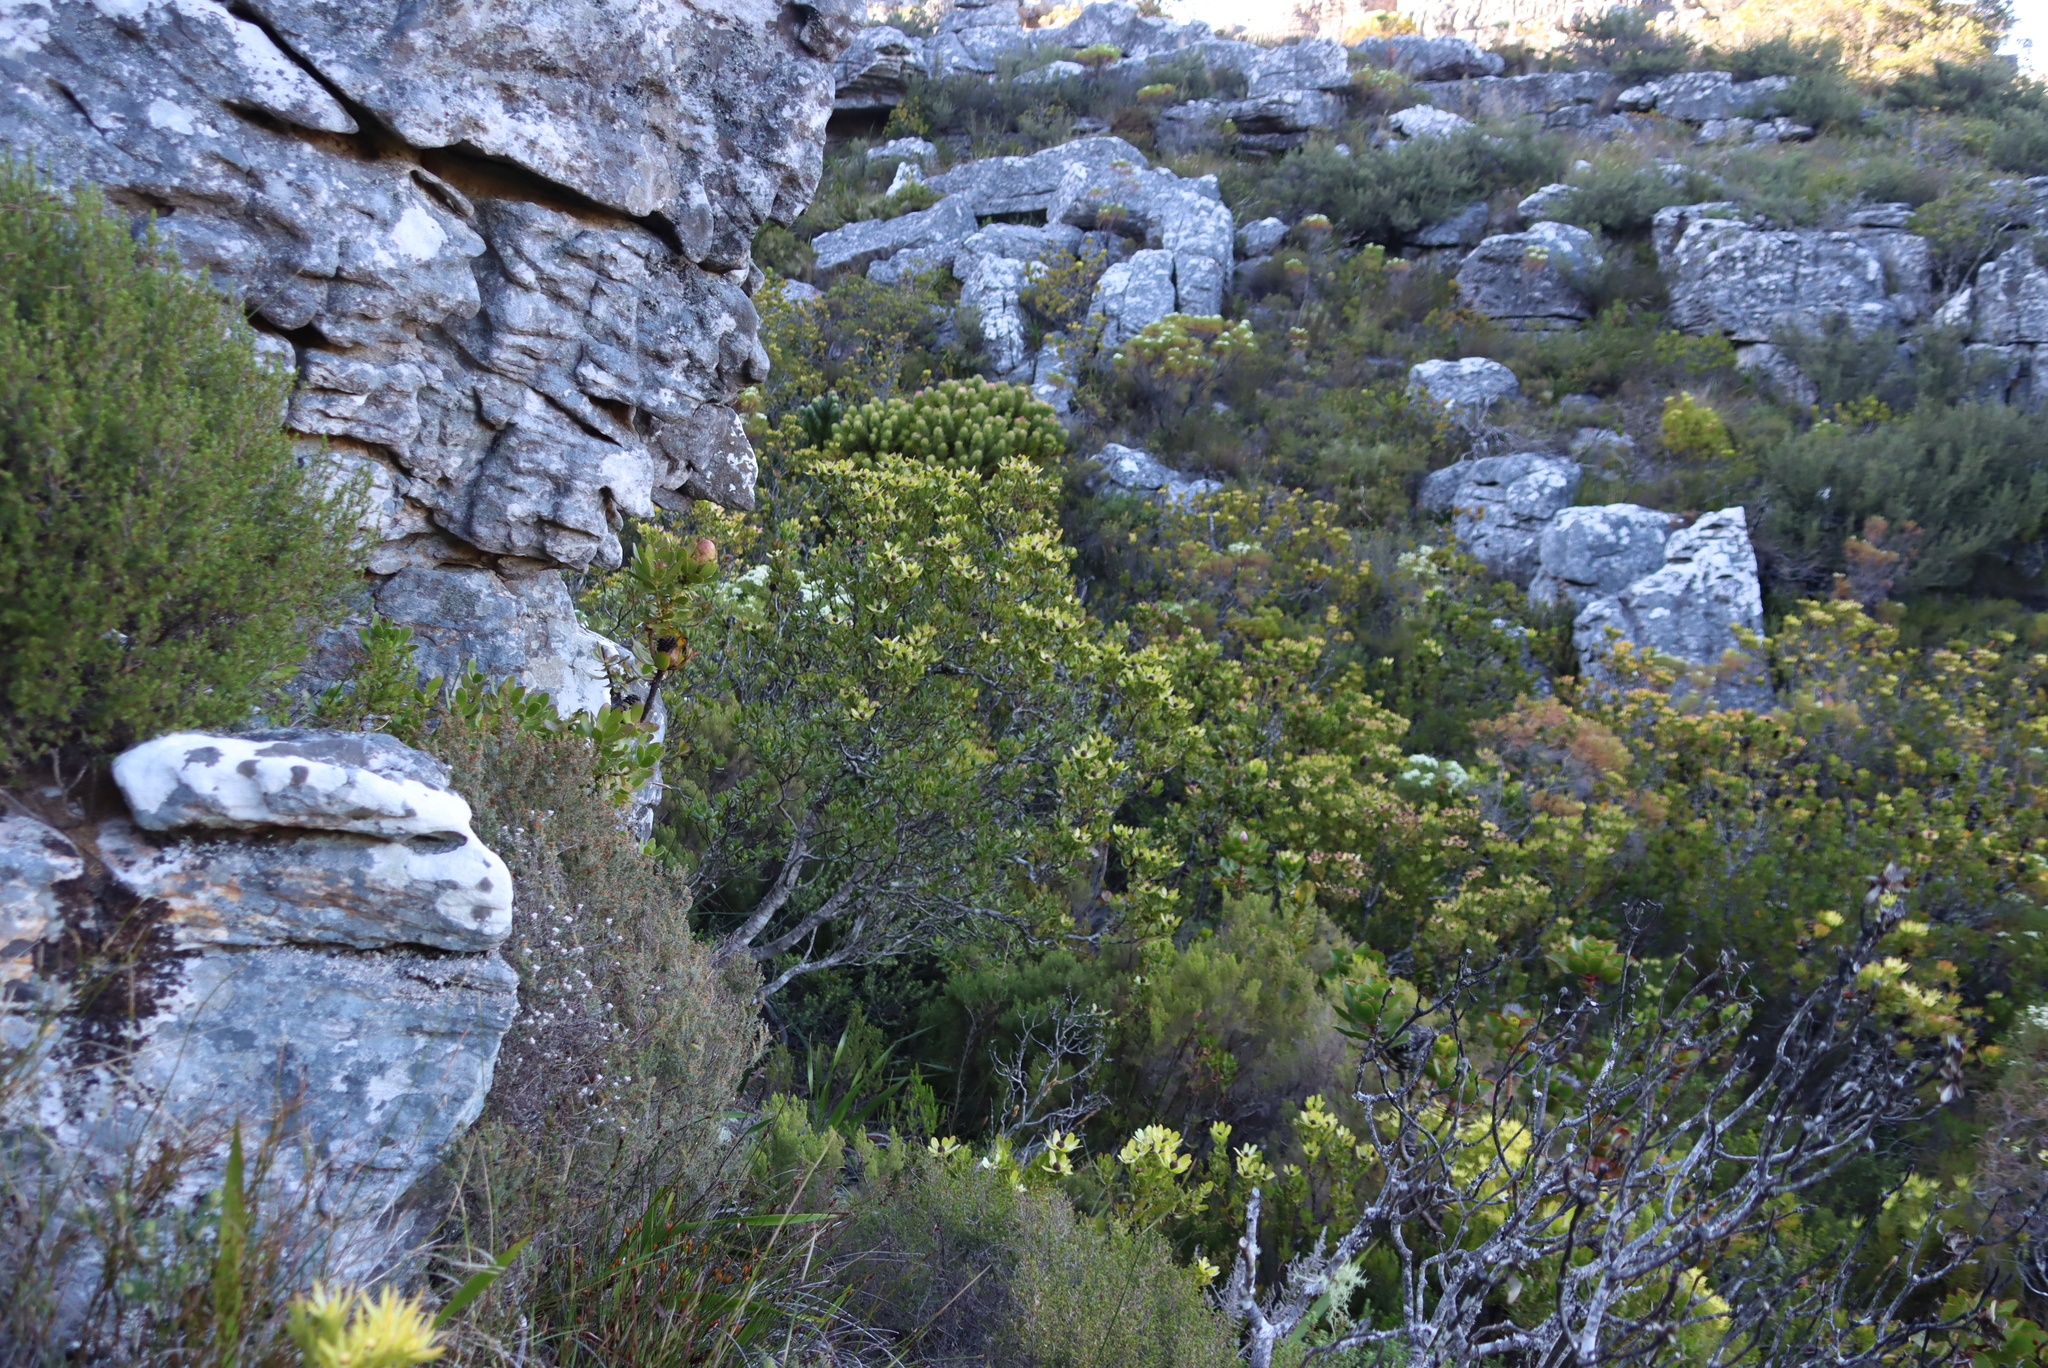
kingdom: Plantae
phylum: Tracheophyta
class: Magnoliopsida
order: Proteales
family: Proteaceae
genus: Leucadendron
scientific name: Leucadendron strobilinum
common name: Mountain rose
